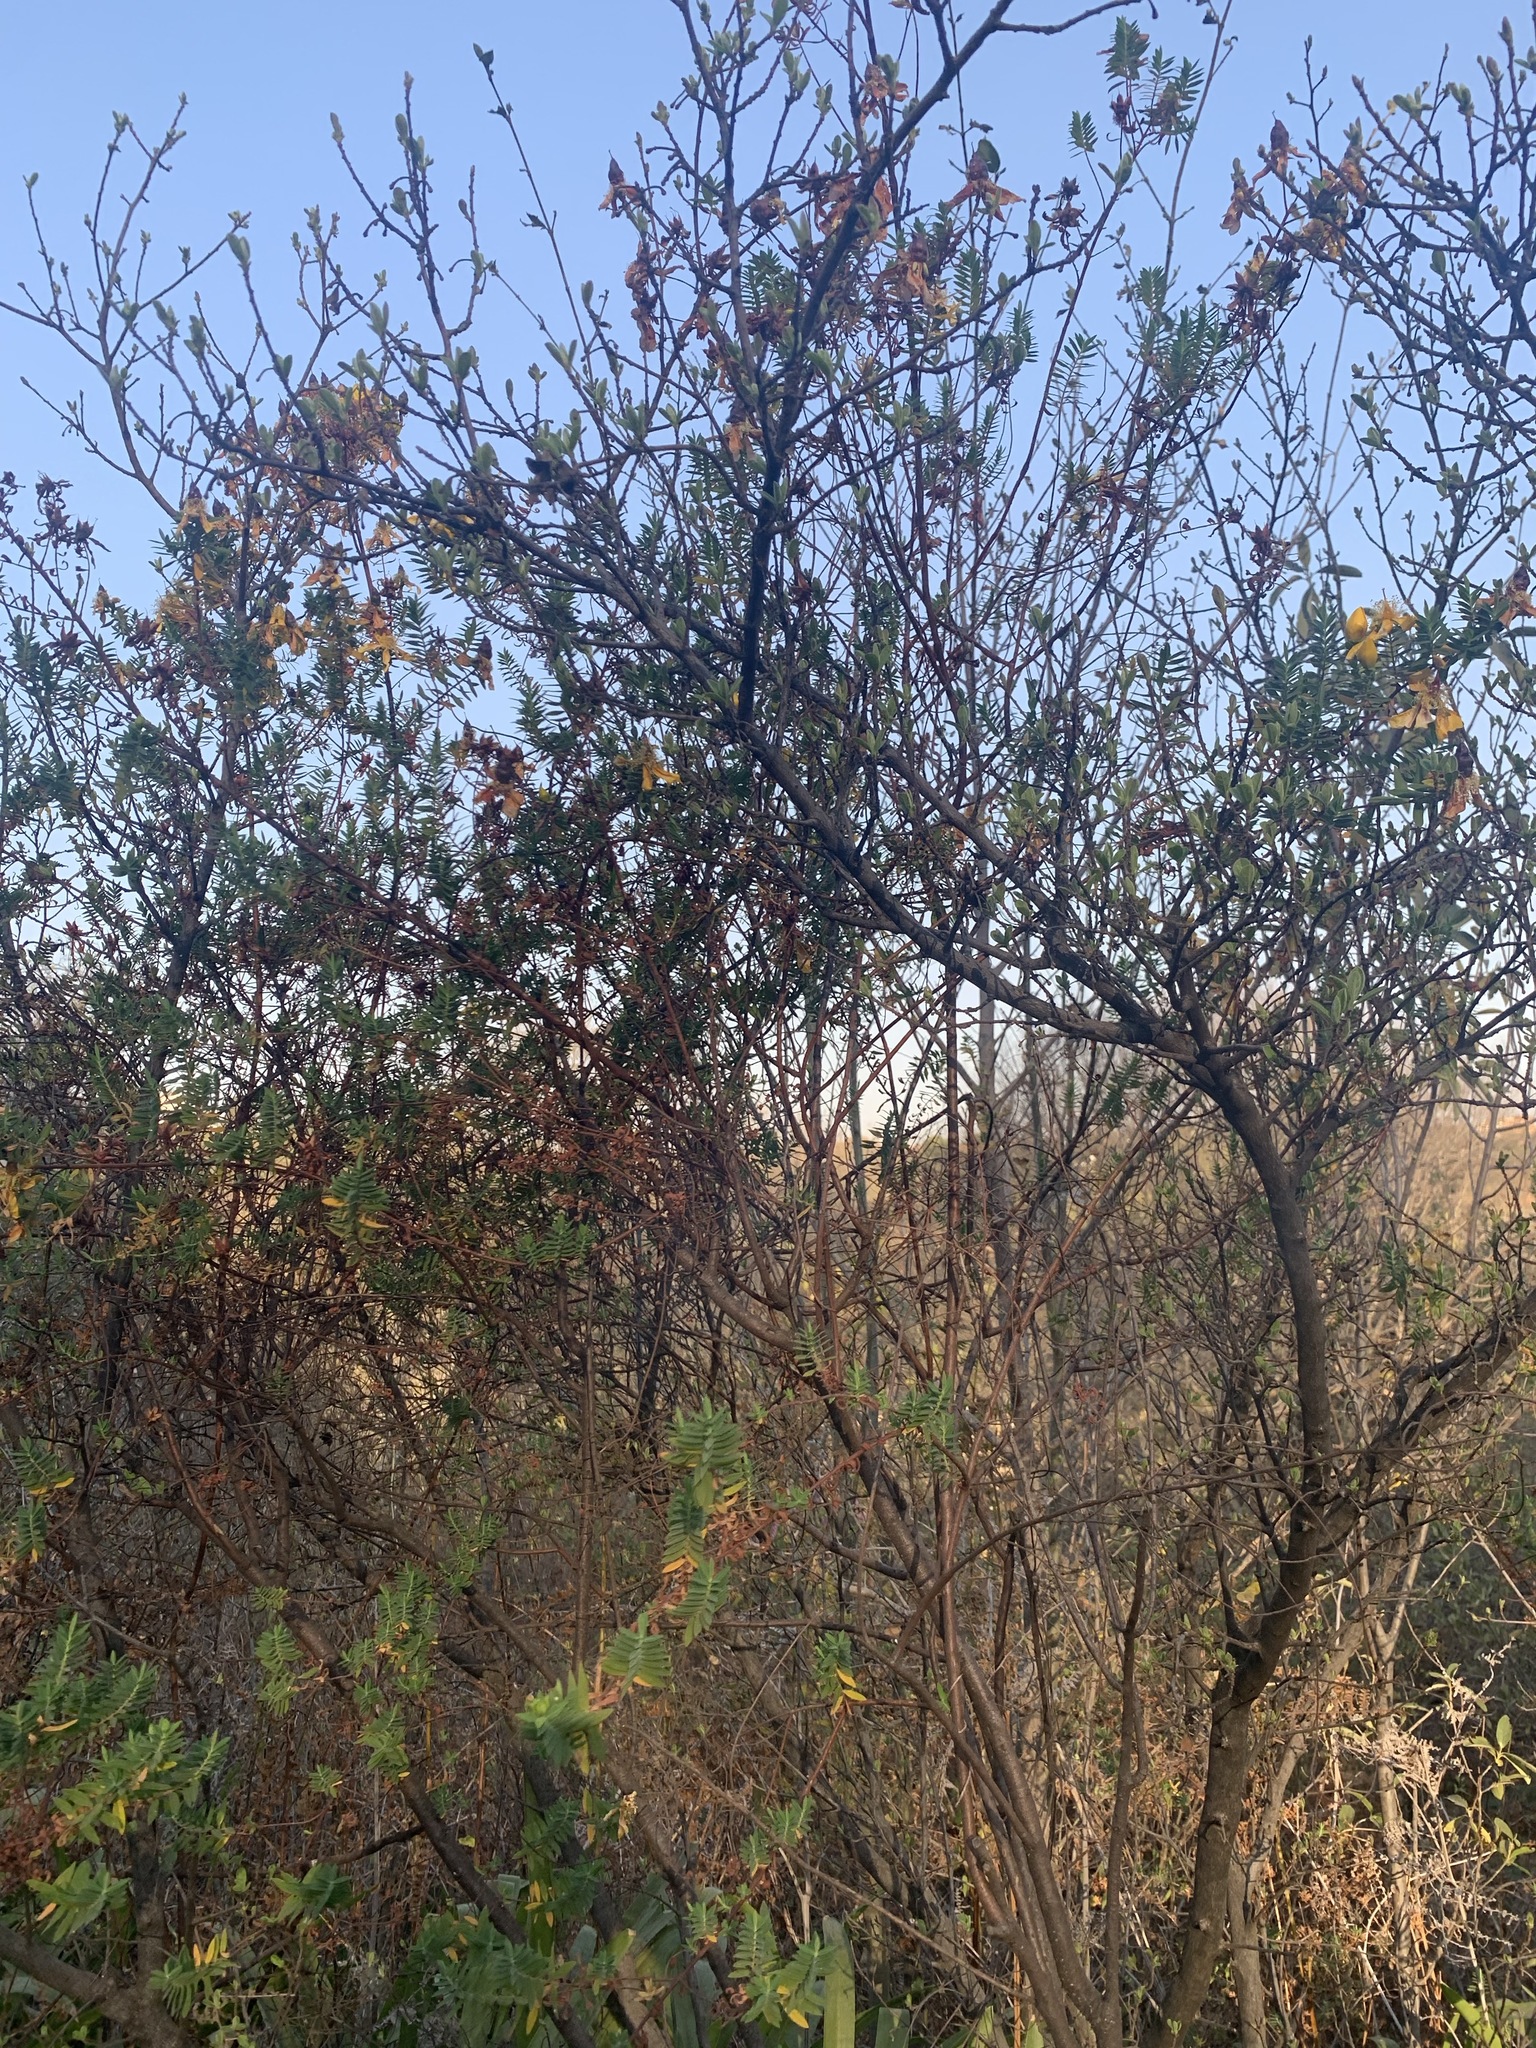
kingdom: Plantae
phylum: Tracheophyta
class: Magnoliopsida
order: Malpighiales
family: Hypericaceae
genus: Hypericum
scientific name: Hypericum revolutum
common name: Curry bush
